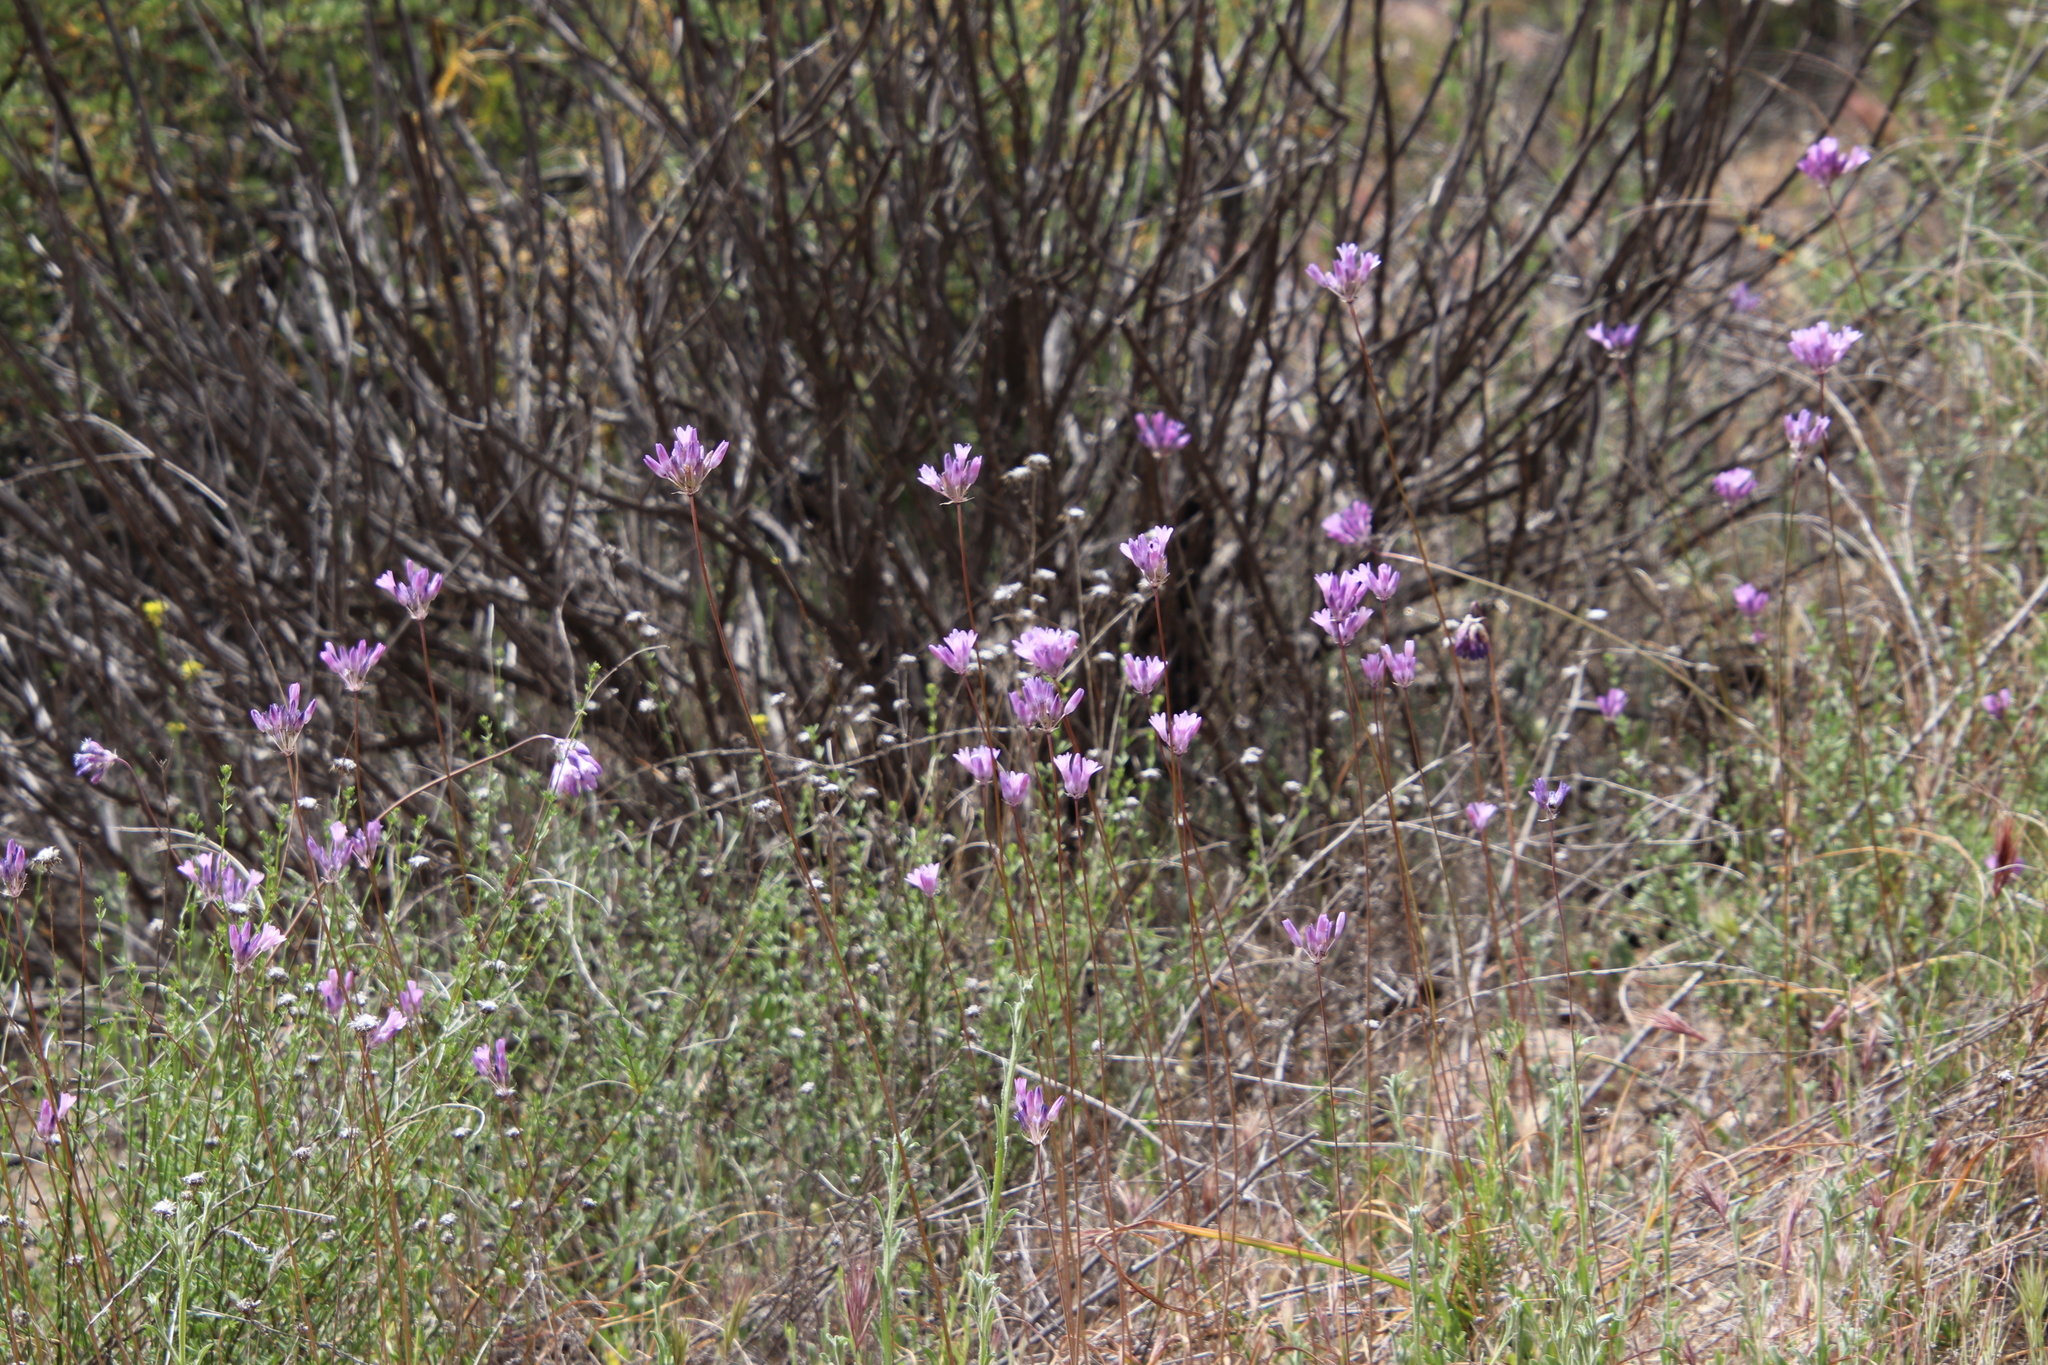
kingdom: Plantae
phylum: Tracheophyta
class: Liliopsida
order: Asparagales
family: Asparagaceae
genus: Dipterostemon
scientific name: Dipterostemon capitatus
